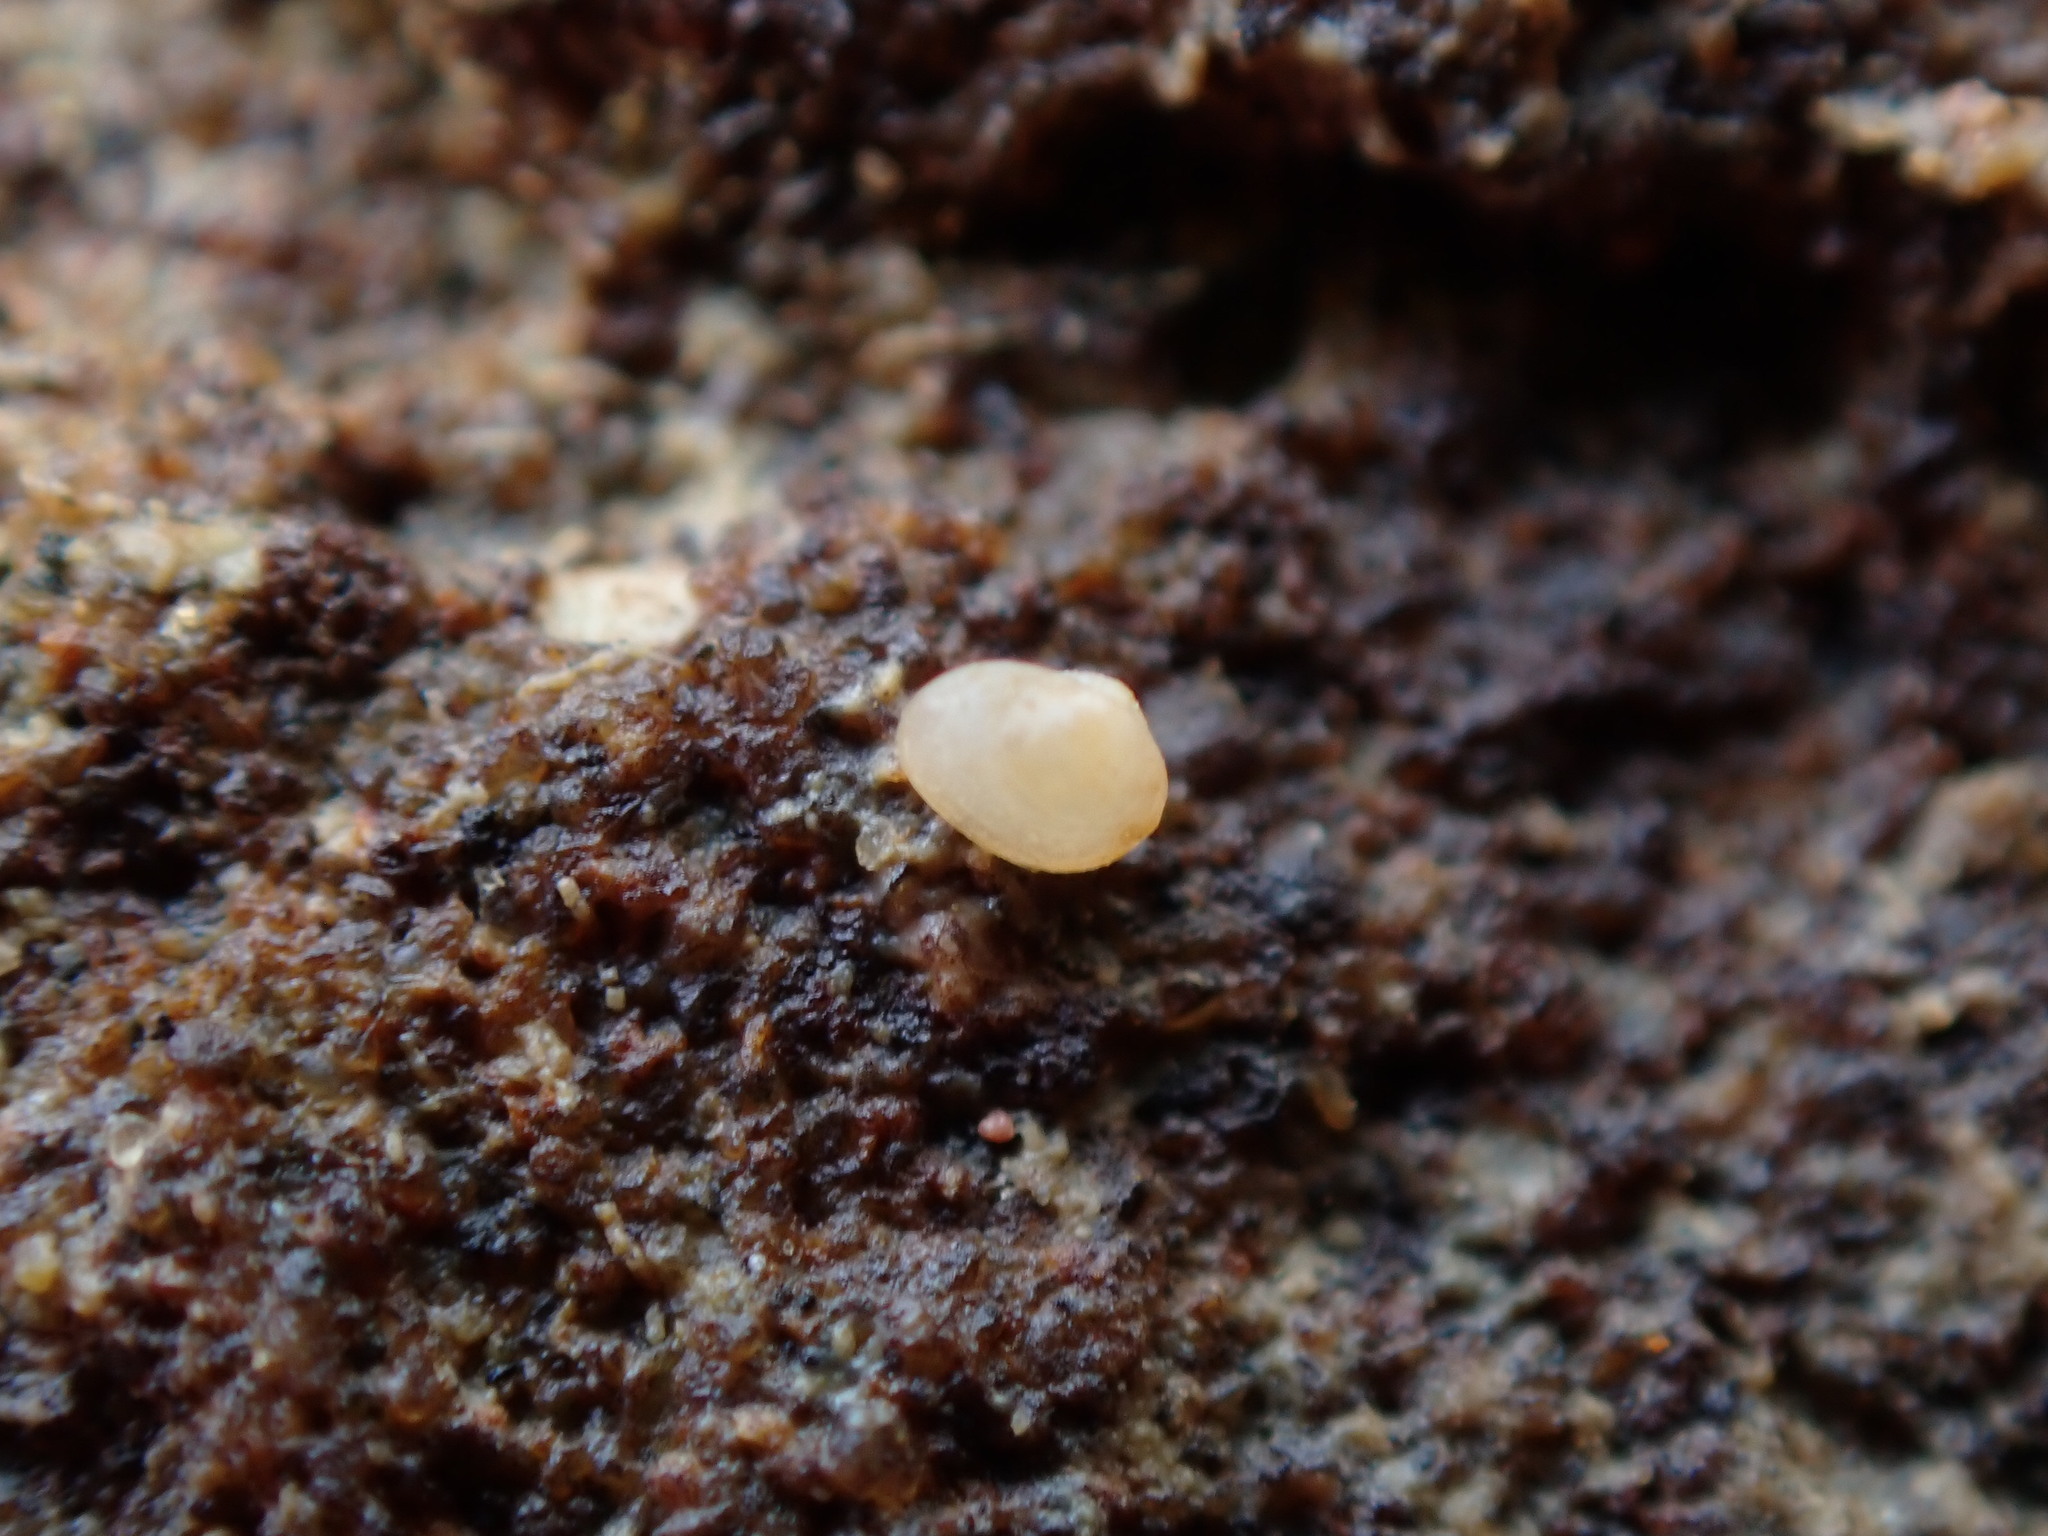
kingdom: Animalia
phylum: Mollusca
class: Bivalvia
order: Galeommatida
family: Lasaeidae
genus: Lasaea
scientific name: Lasaea maoria
